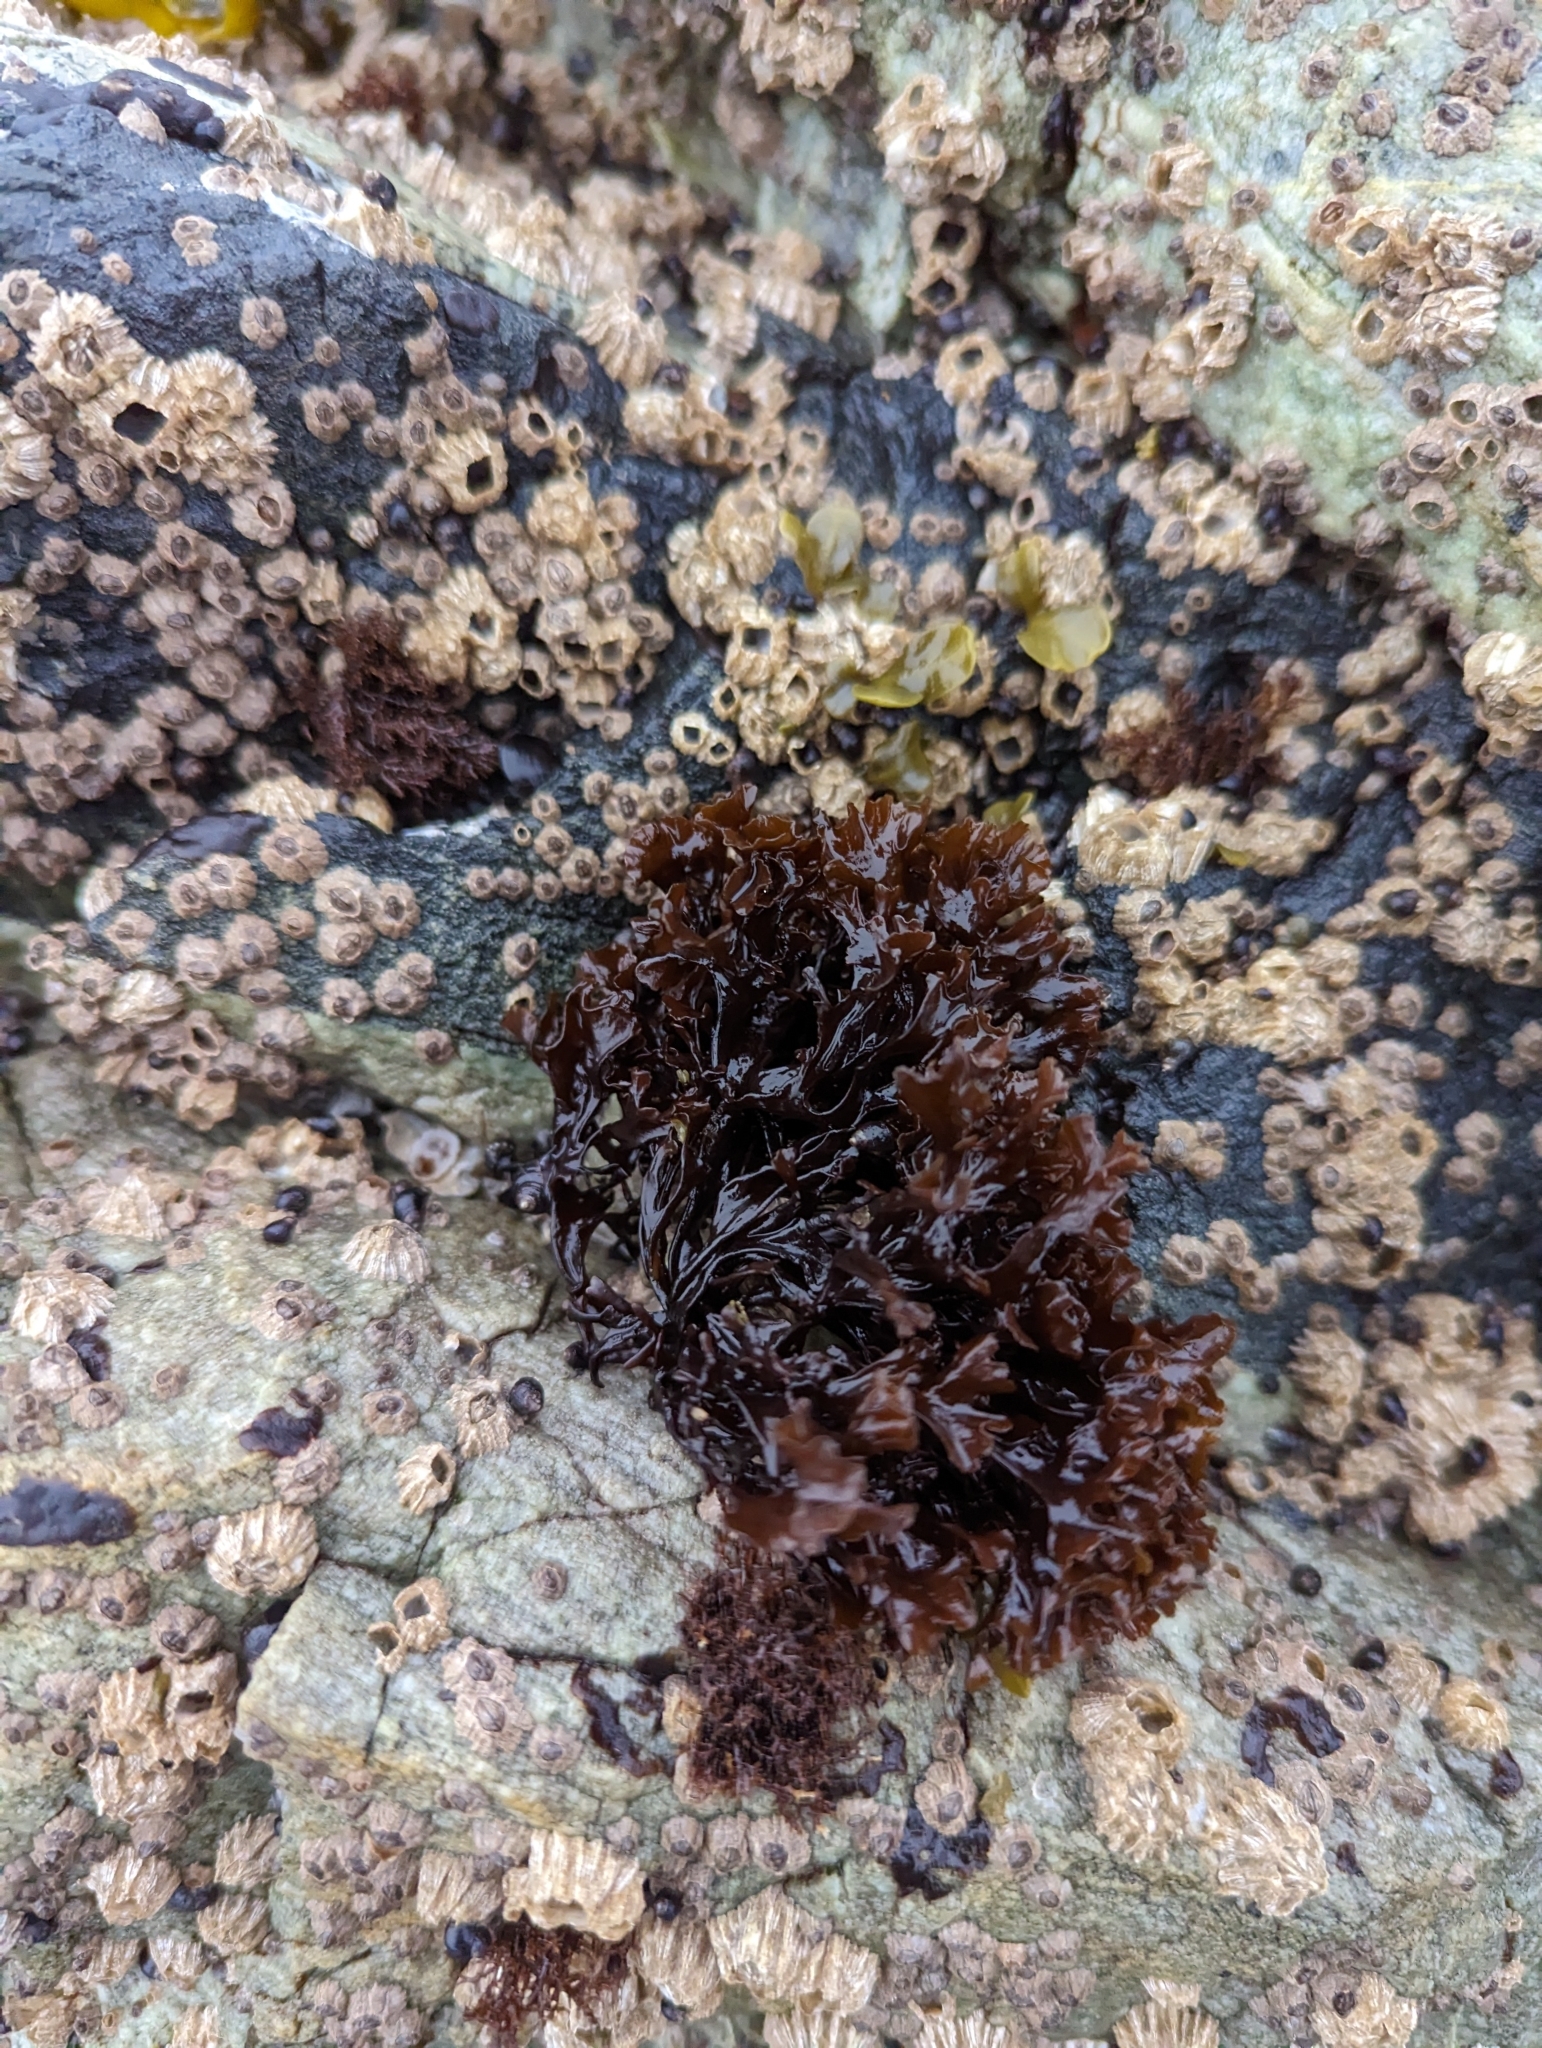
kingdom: Plantae
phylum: Rhodophyta
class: Florideophyceae
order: Gigartinales
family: Phyllophoraceae
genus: Mastocarpus
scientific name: Mastocarpus papillatus
